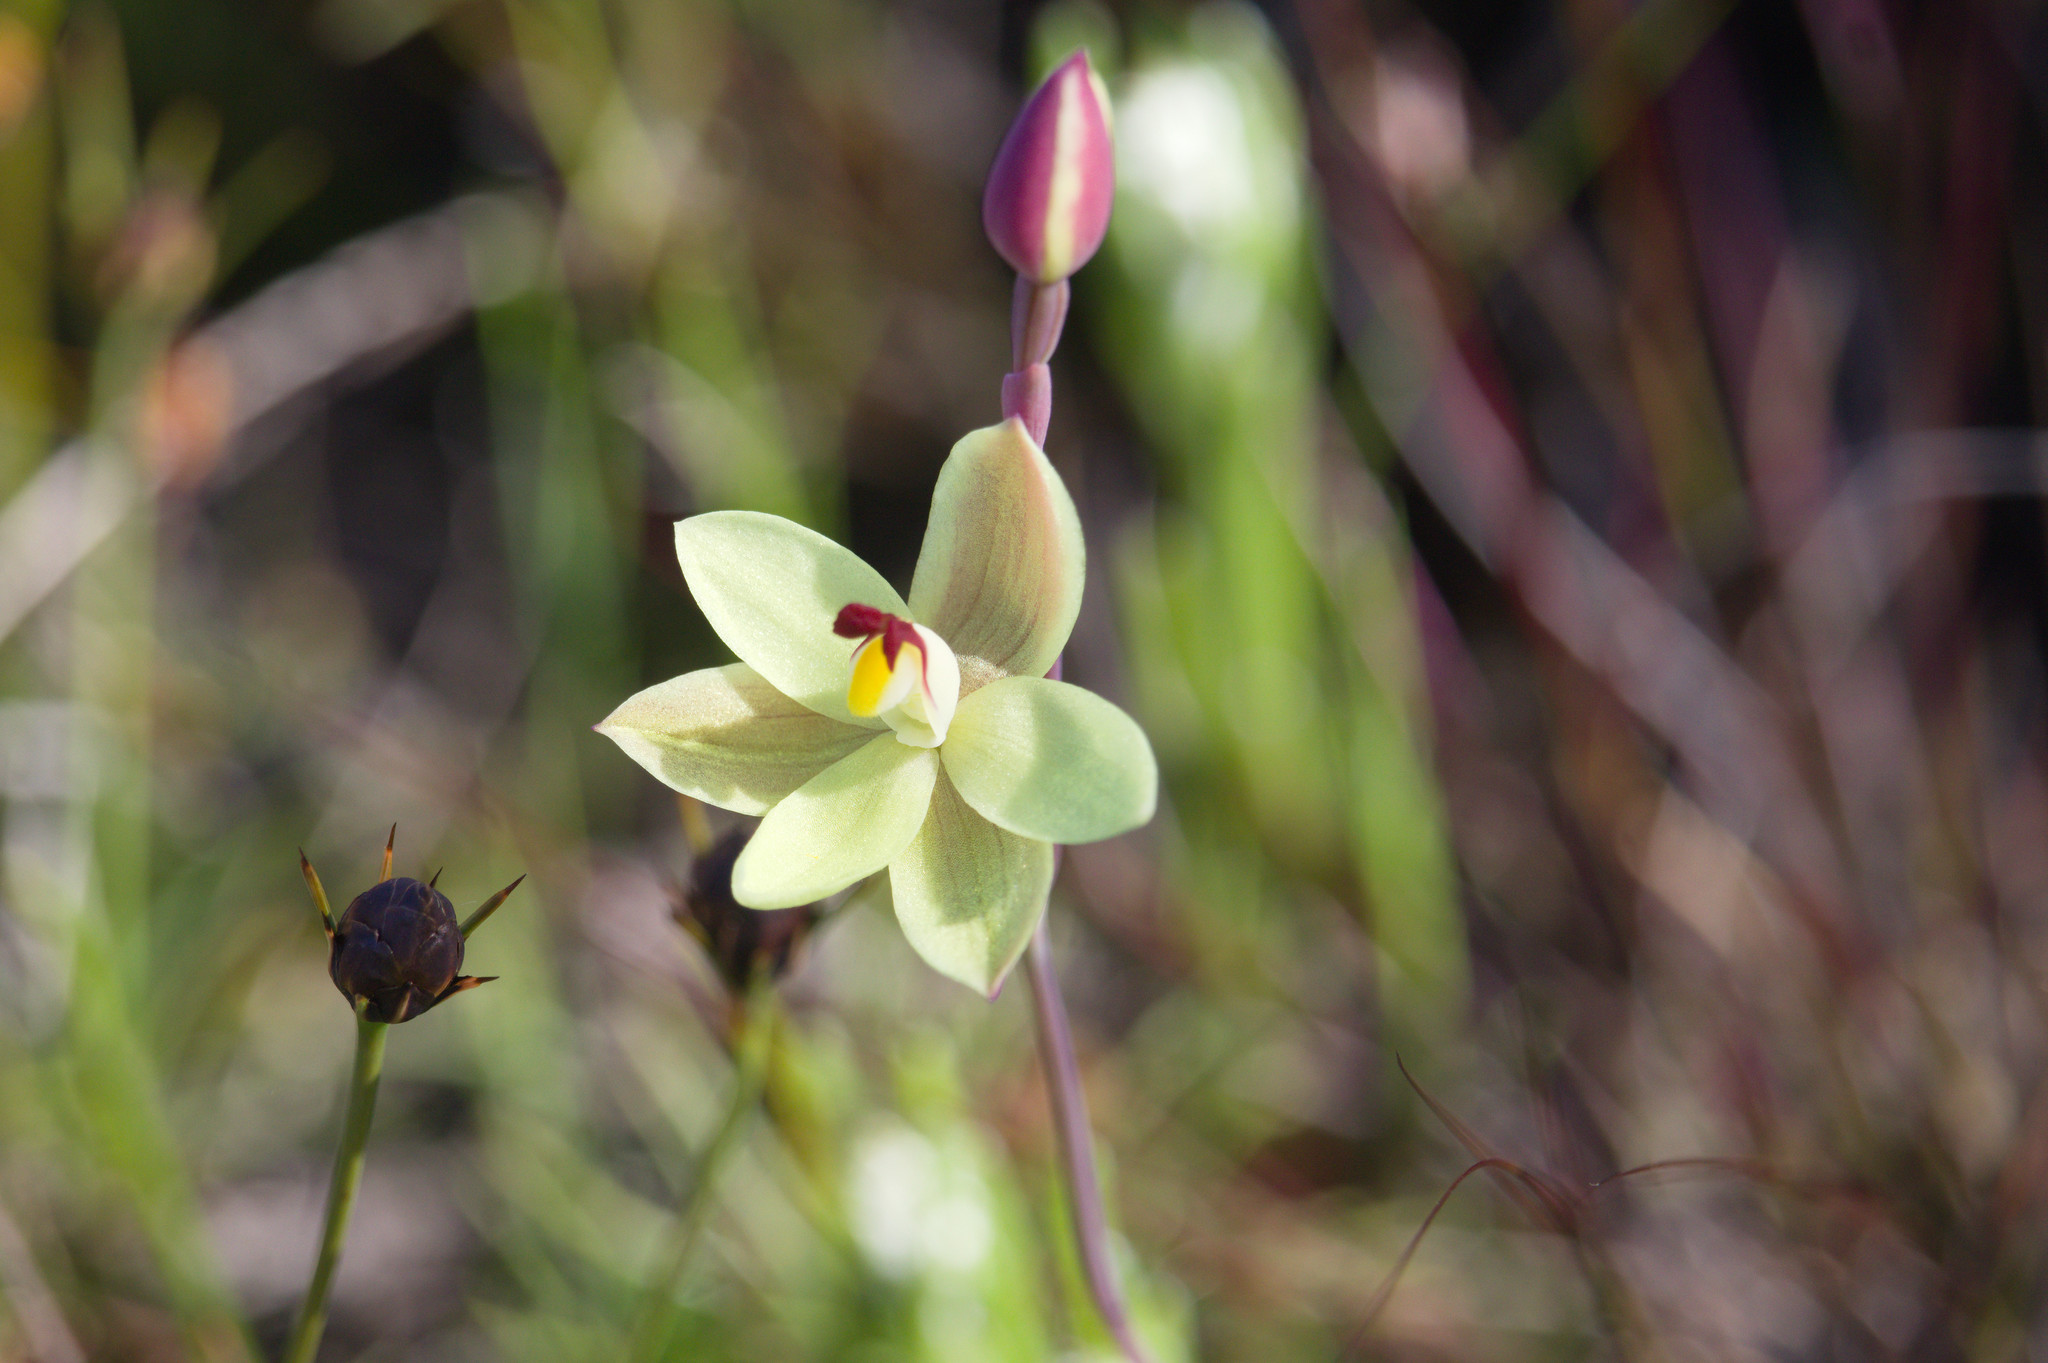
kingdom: Plantae
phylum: Tracheophyta
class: Liliopsida
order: Asparagales
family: Orchidaceae
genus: Thelymitra
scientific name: Thelymitra antennifera
